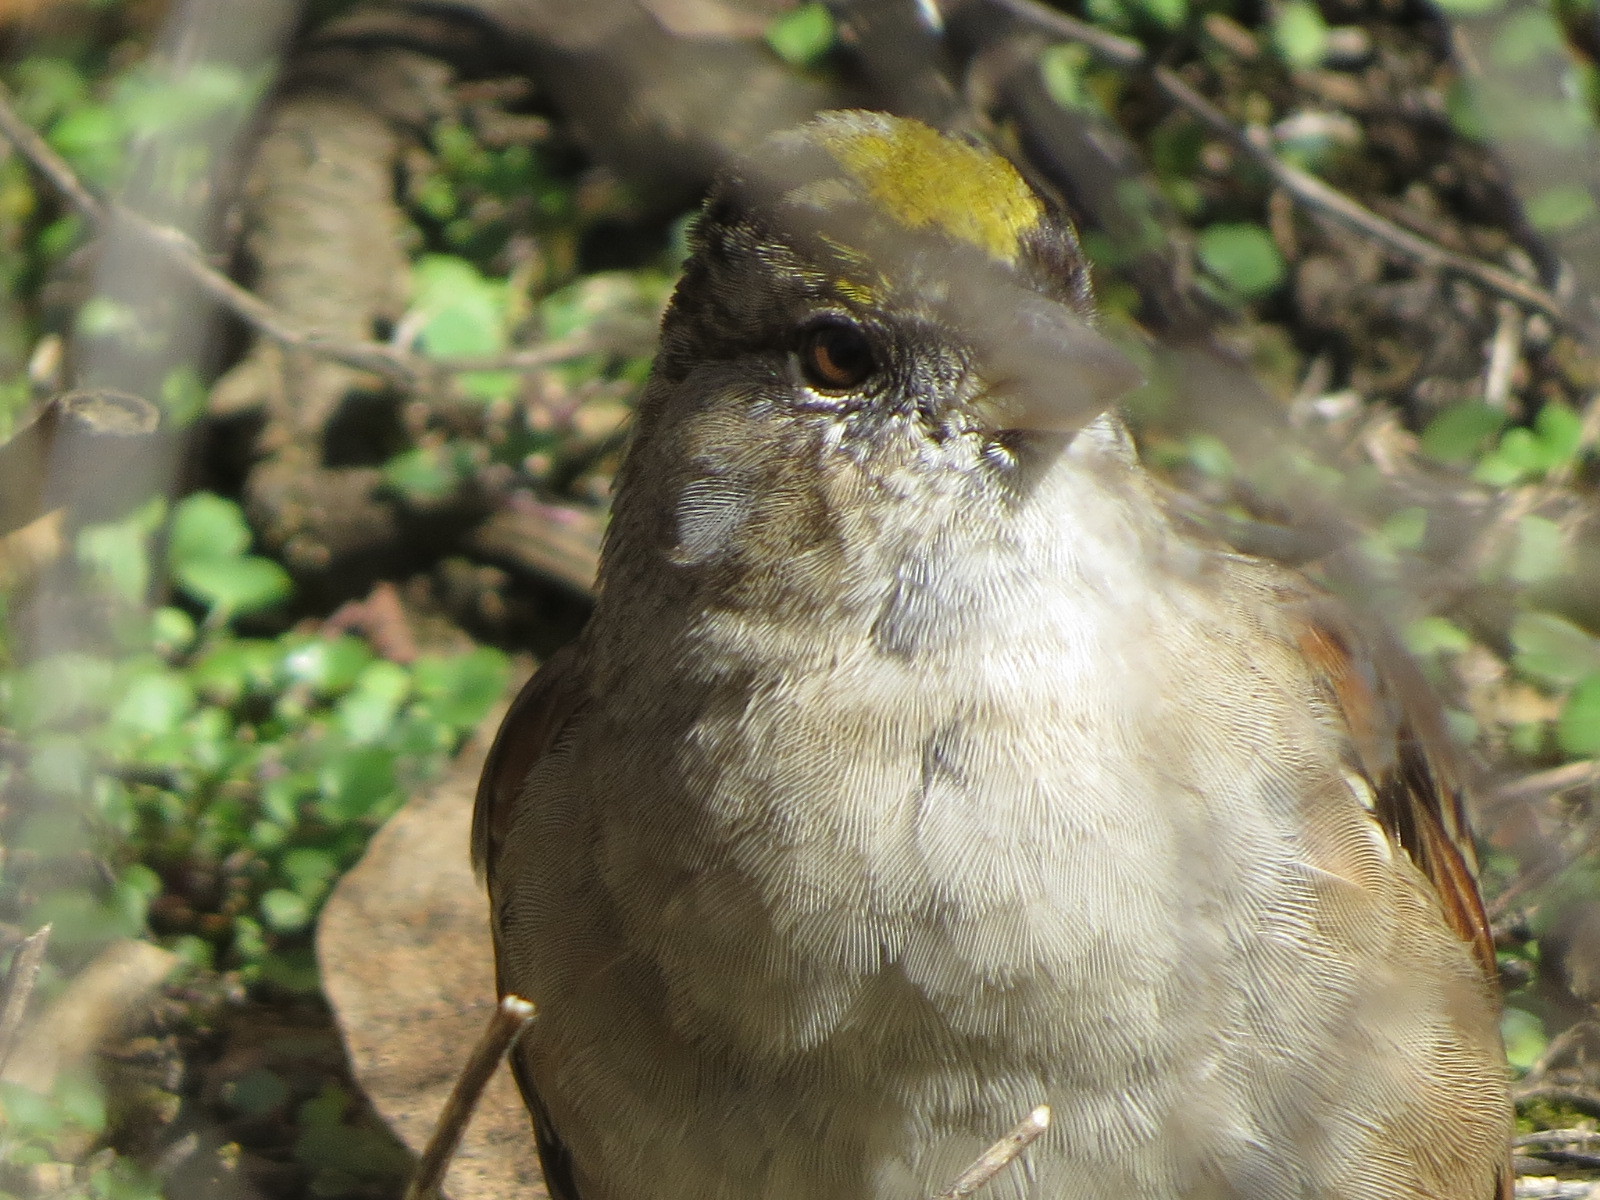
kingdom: Animalia
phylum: Chordata
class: Aves
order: Passeriformes
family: Passerellidae
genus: Zonotrichia
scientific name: Zonotrichia atricapilla
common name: Golden-crowned sparrow
